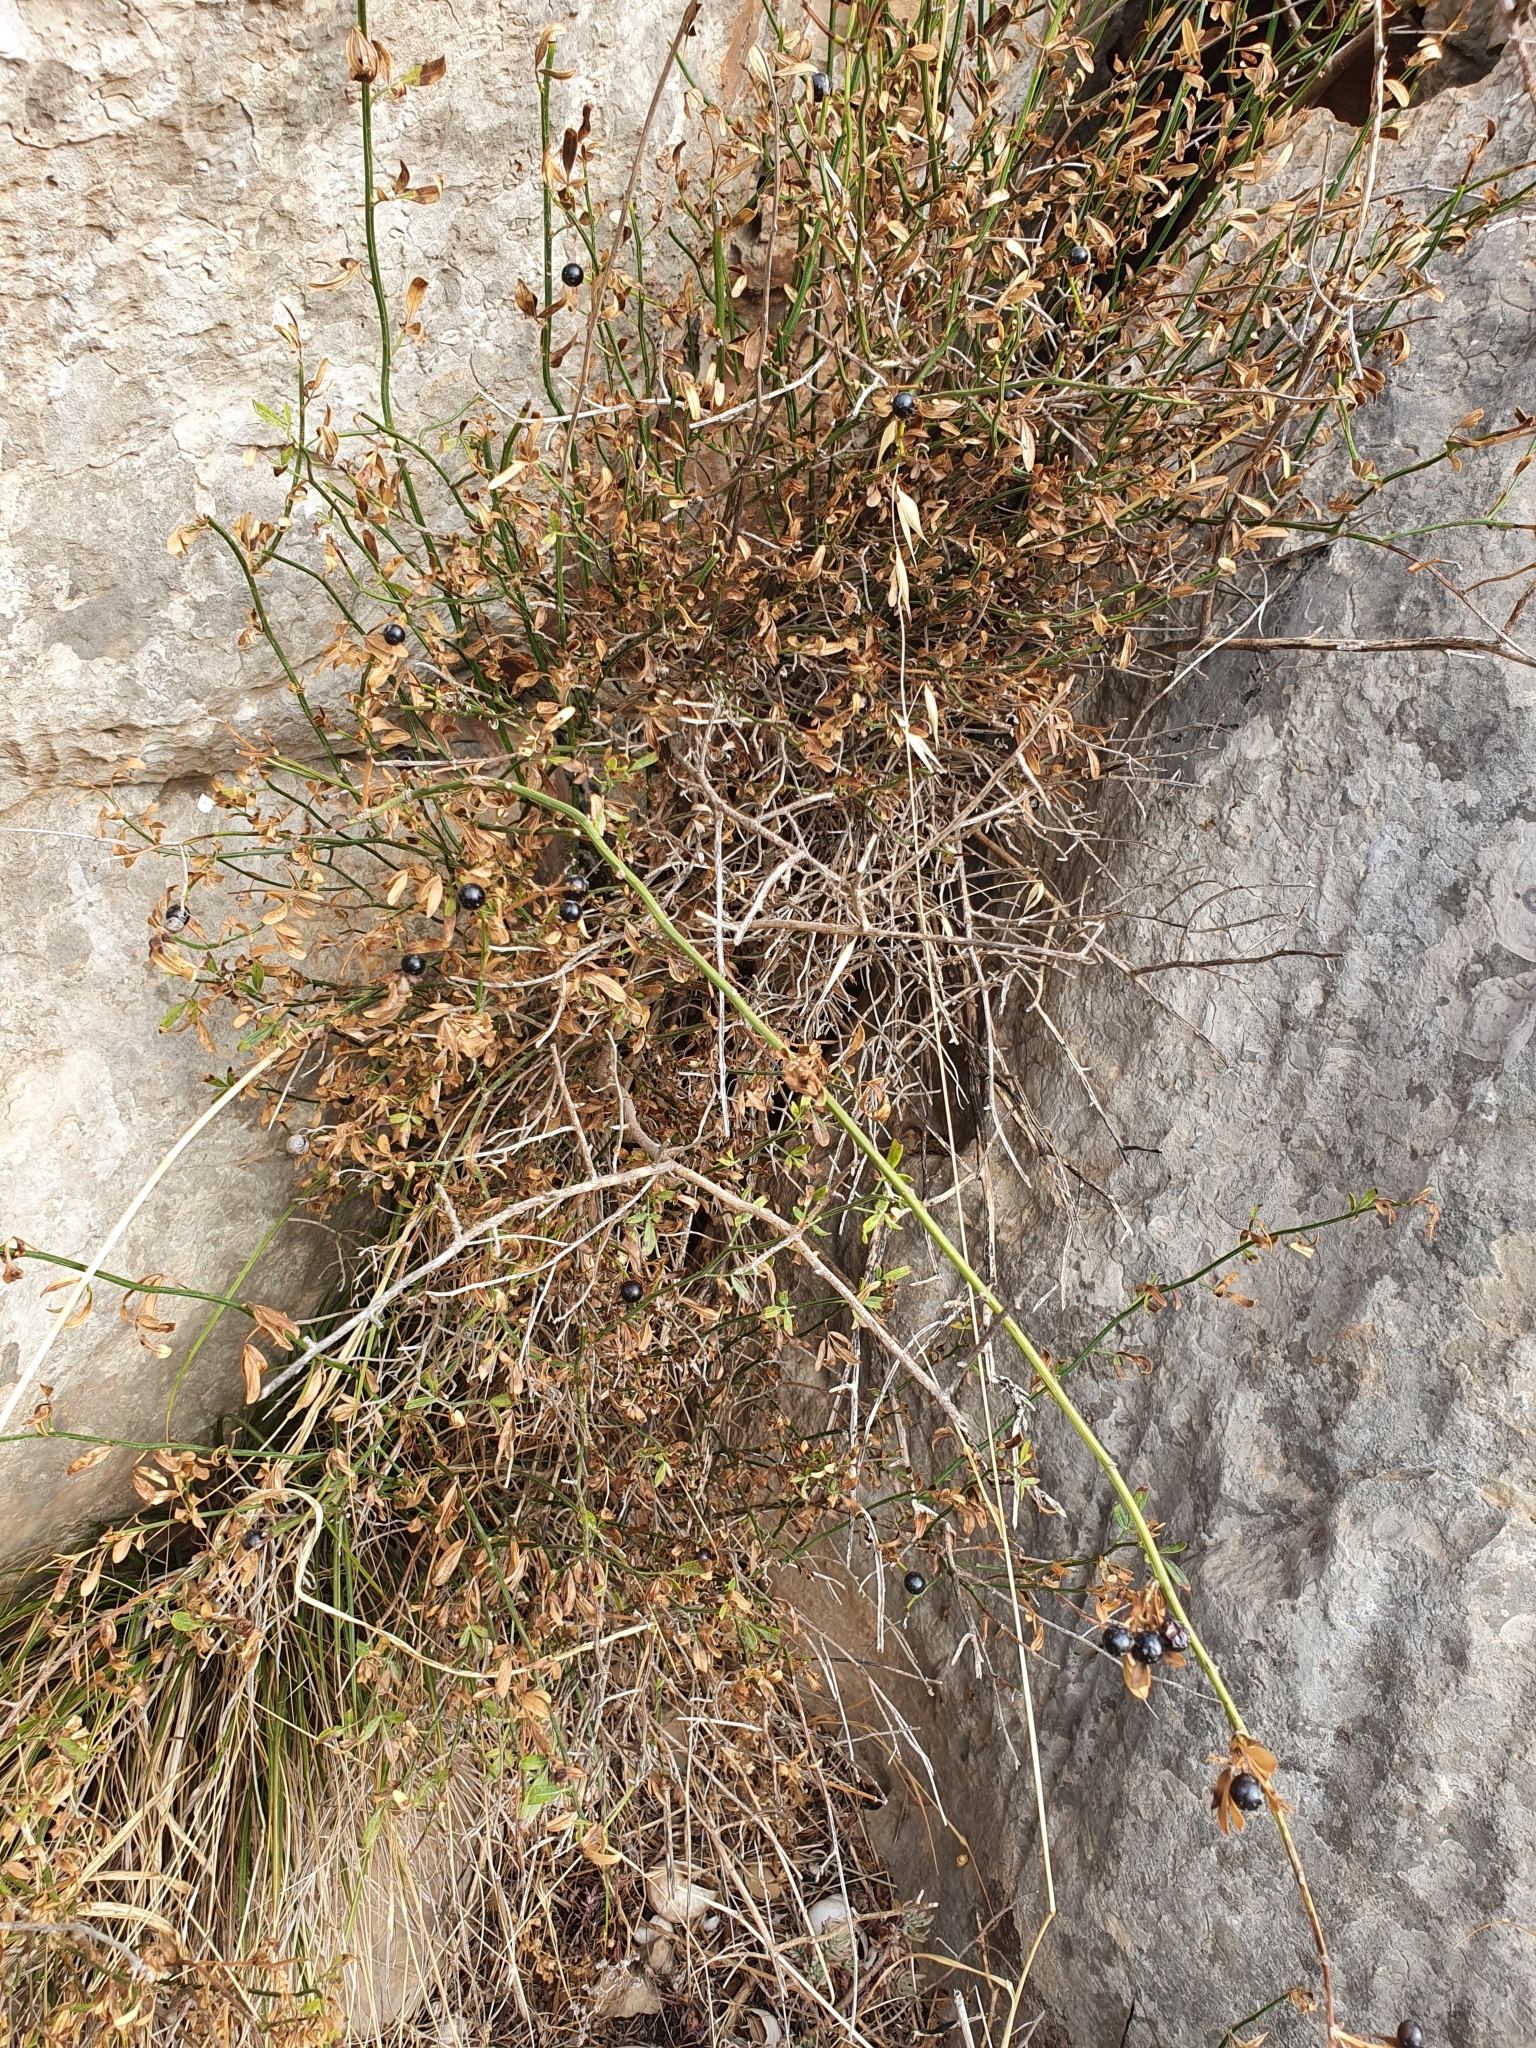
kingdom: Plantae
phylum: Tracheophyta
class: Magnoliopsida
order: Lamiales
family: Oleaceae
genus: Chrysojasminum
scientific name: Chrysojasminum fruticans
